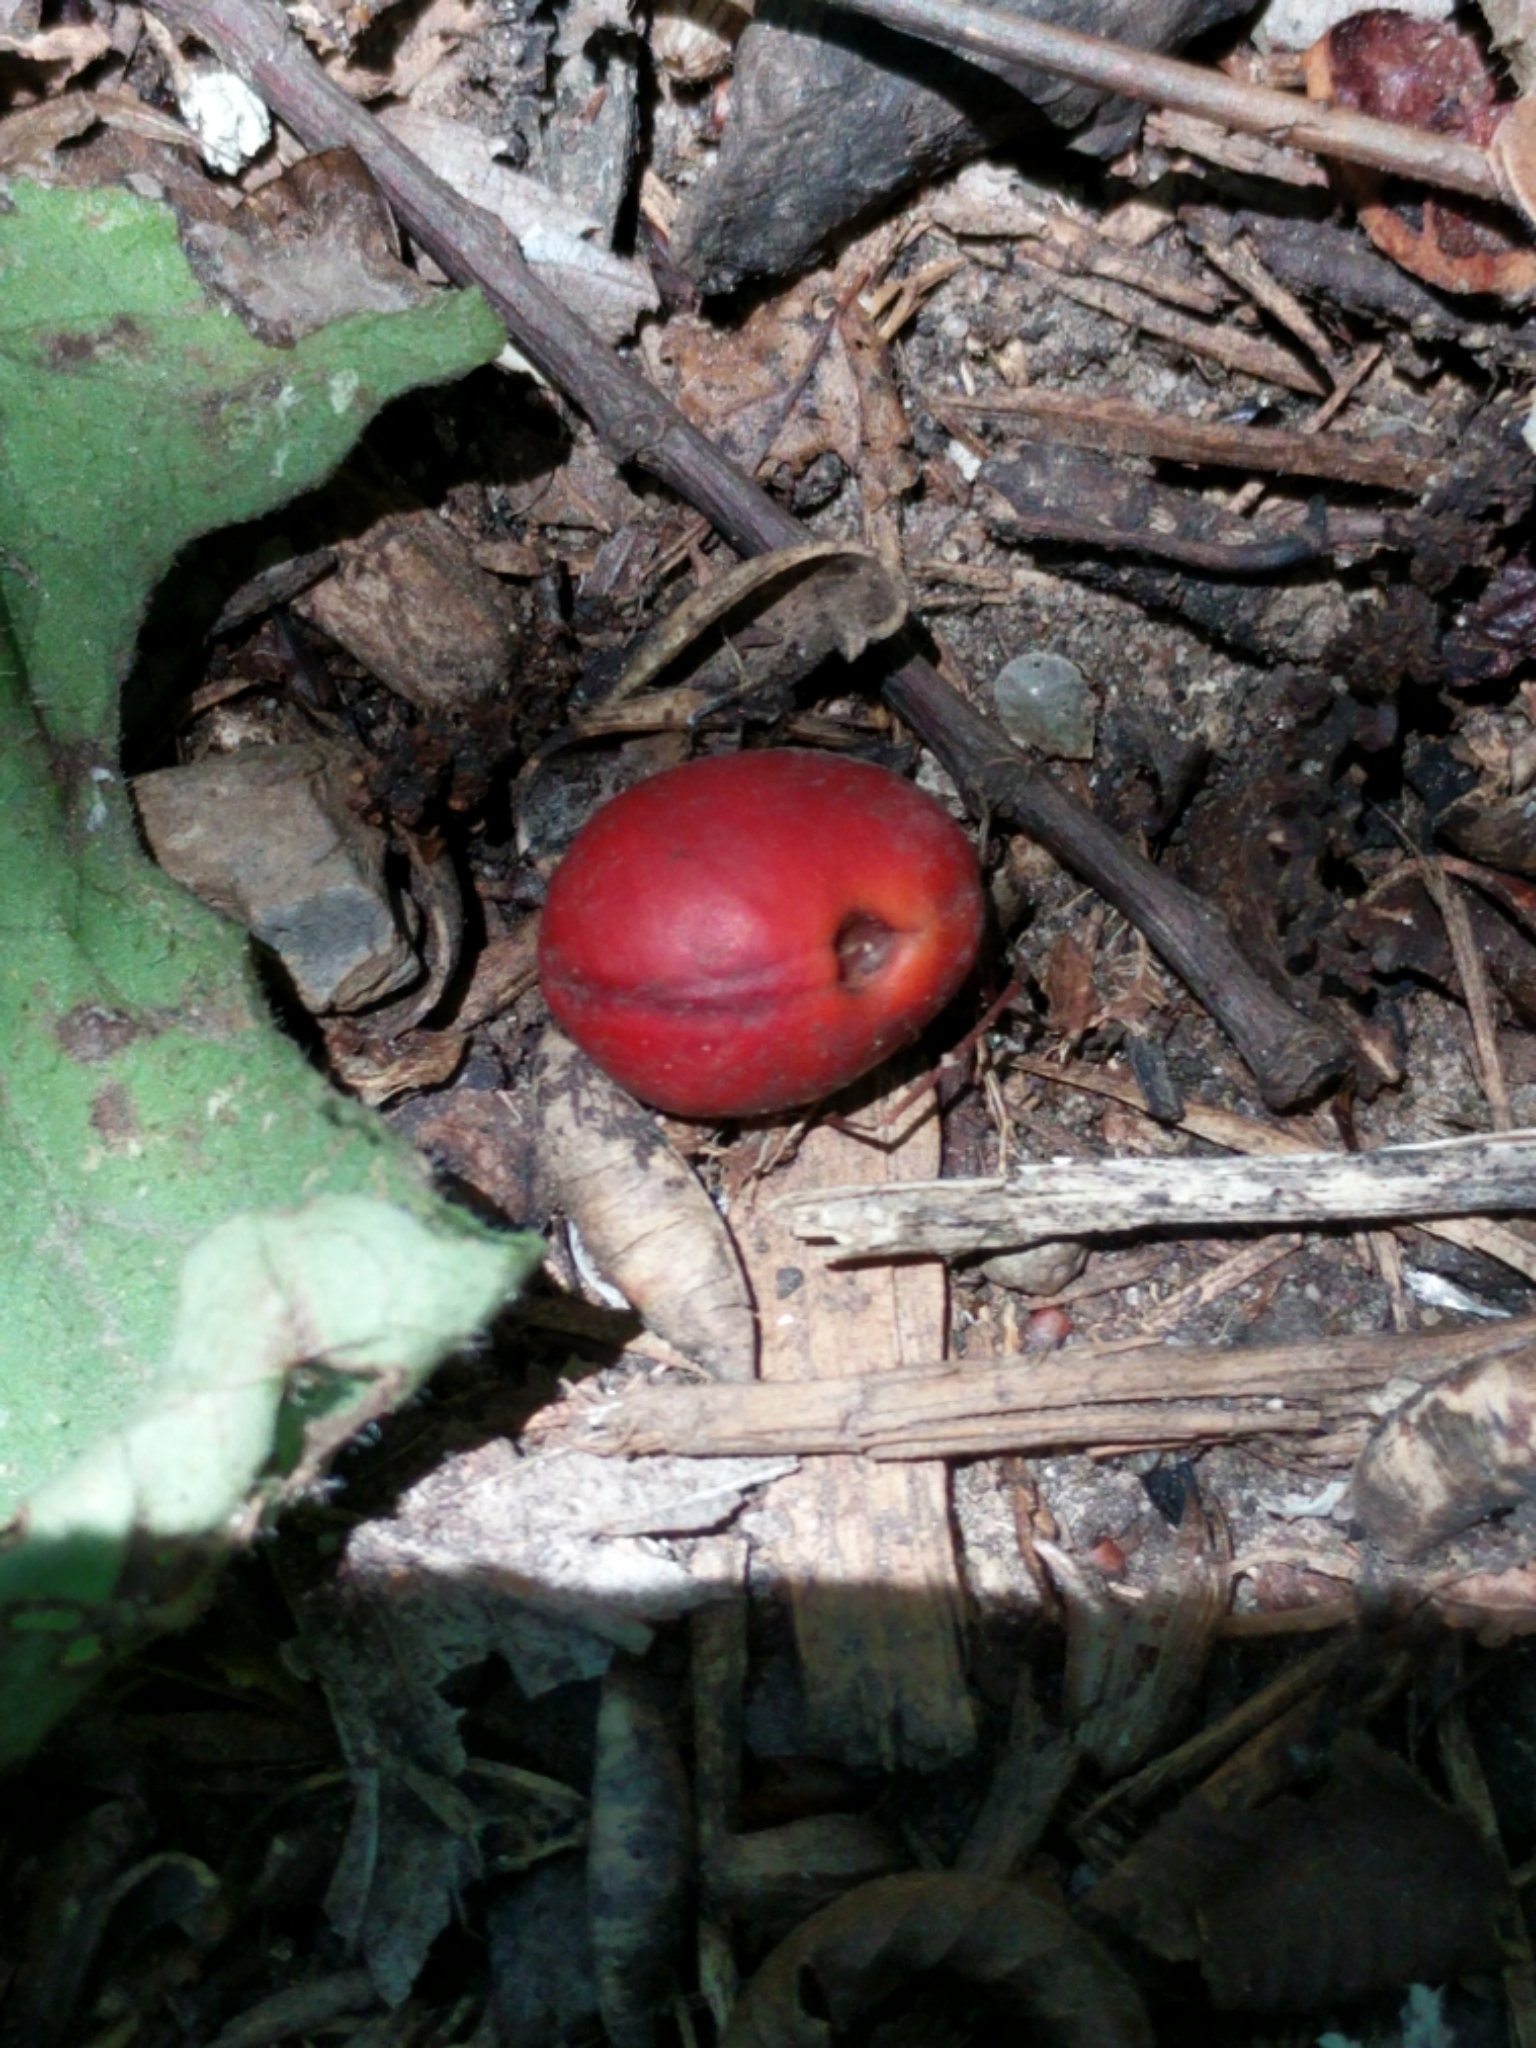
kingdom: Plantae
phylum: Tracheophyta
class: Magnoliopsida
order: Fabales
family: Fabaceae
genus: Dermatophyllum
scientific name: Dermatophyllum secundiflorum
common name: Texas-mountain-laurel
